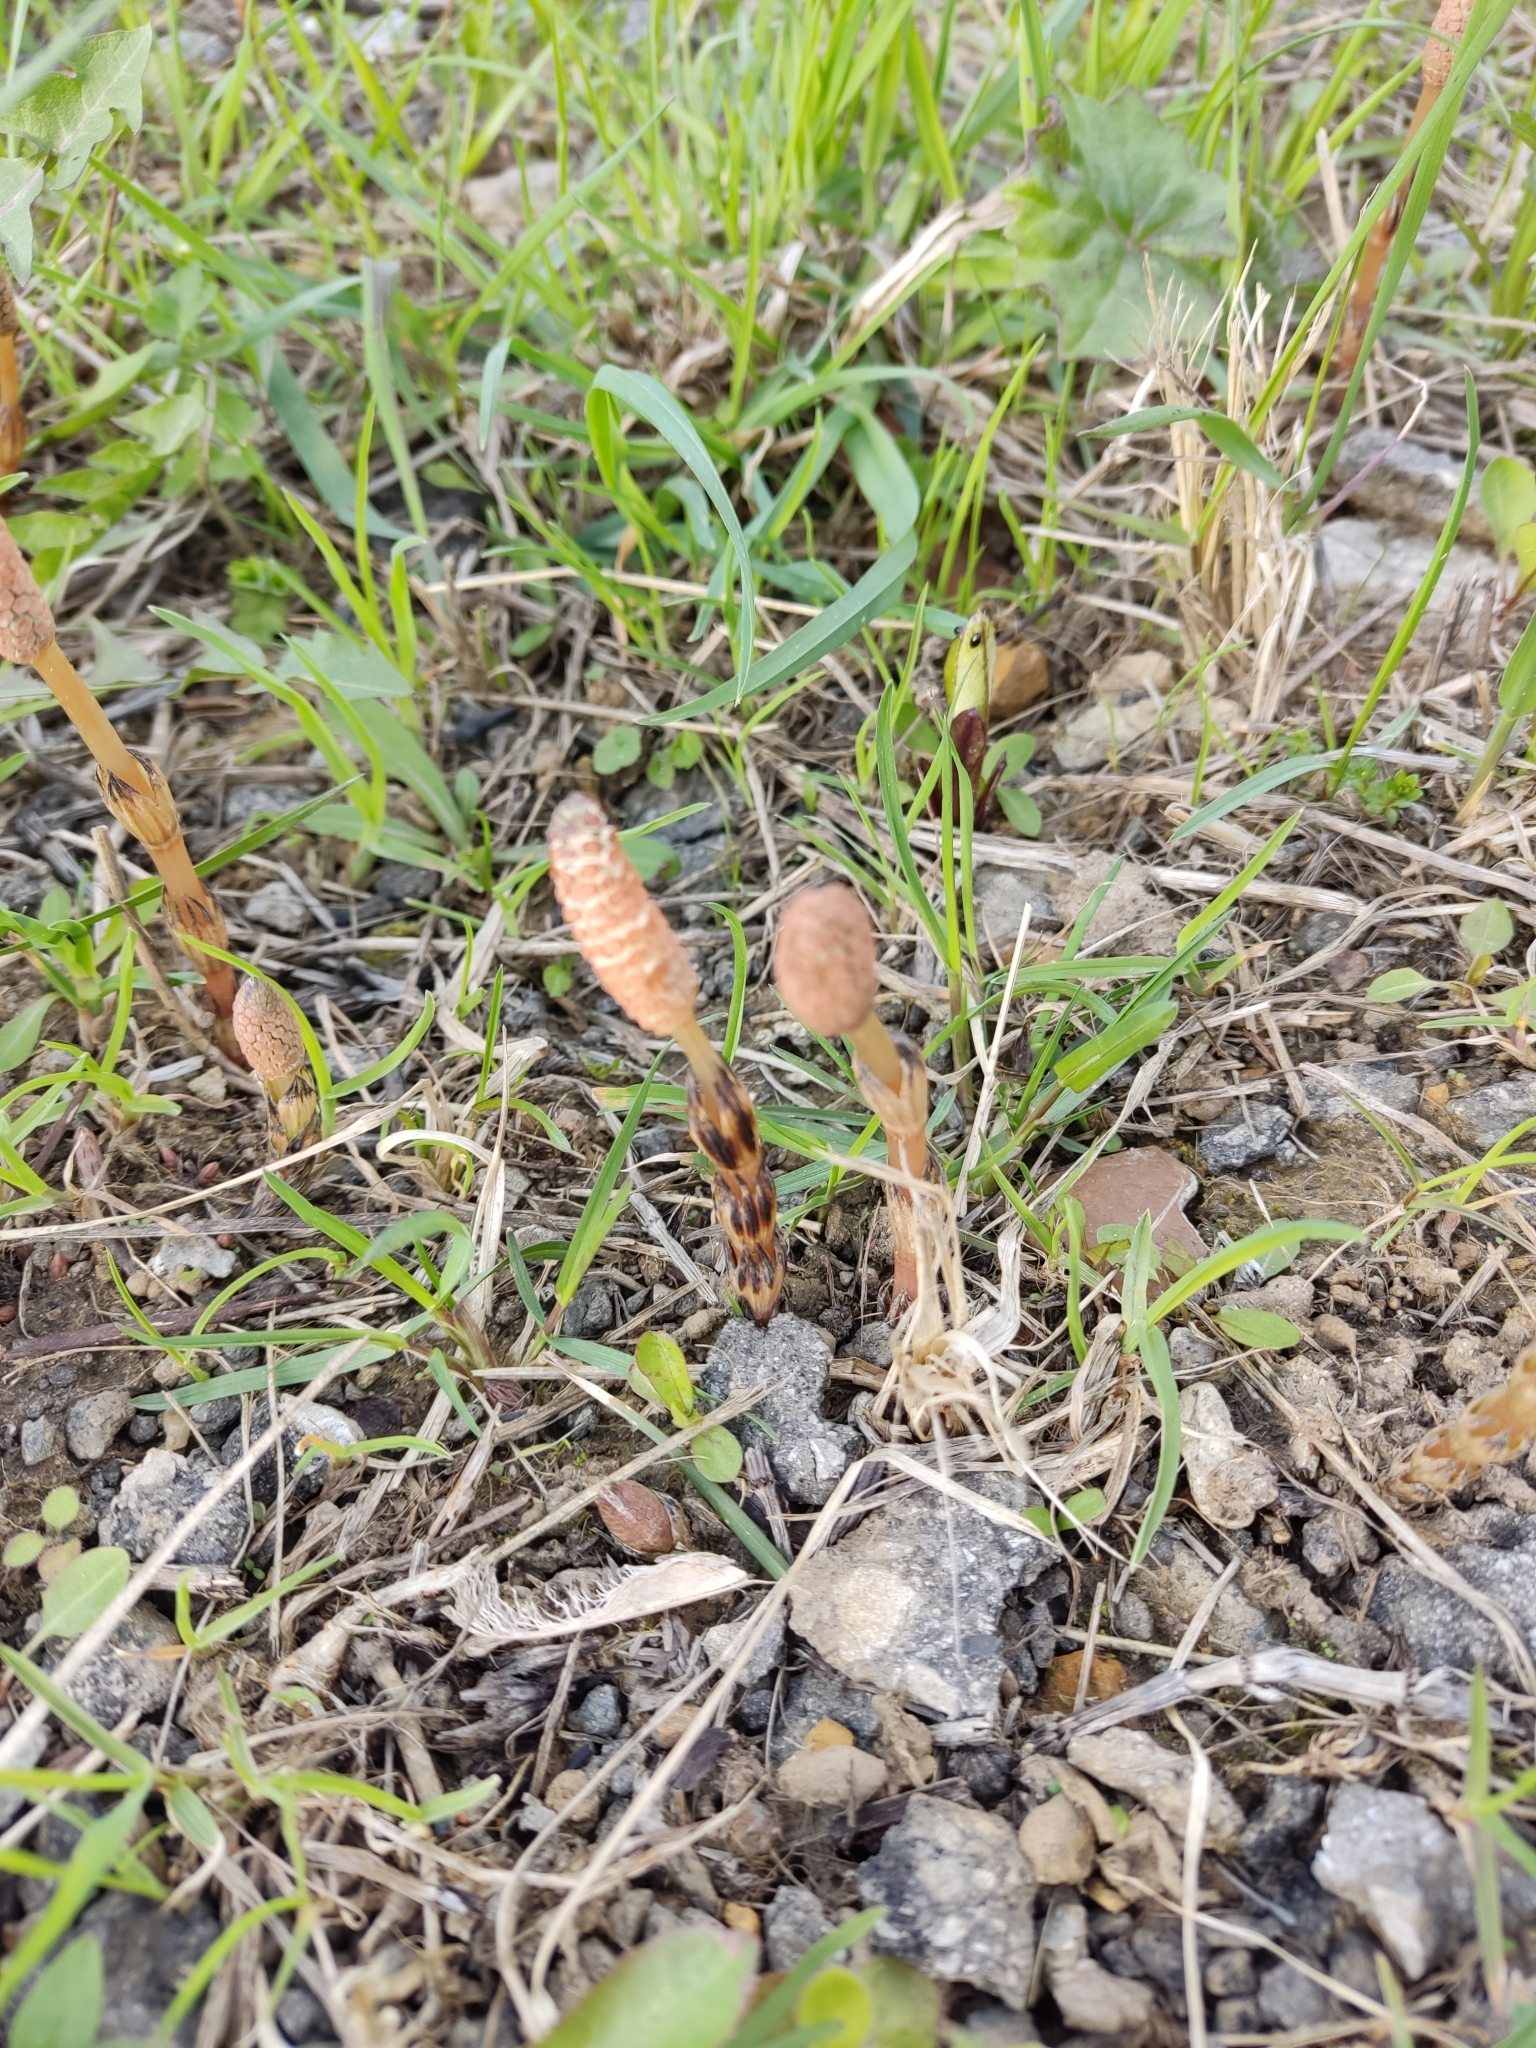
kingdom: Plantae
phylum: Tracheophyta
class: Polypodiopsida
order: Equisetales
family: Equisetaceae
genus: Equisetum
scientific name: Equisetum arvense
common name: Field horsetail
